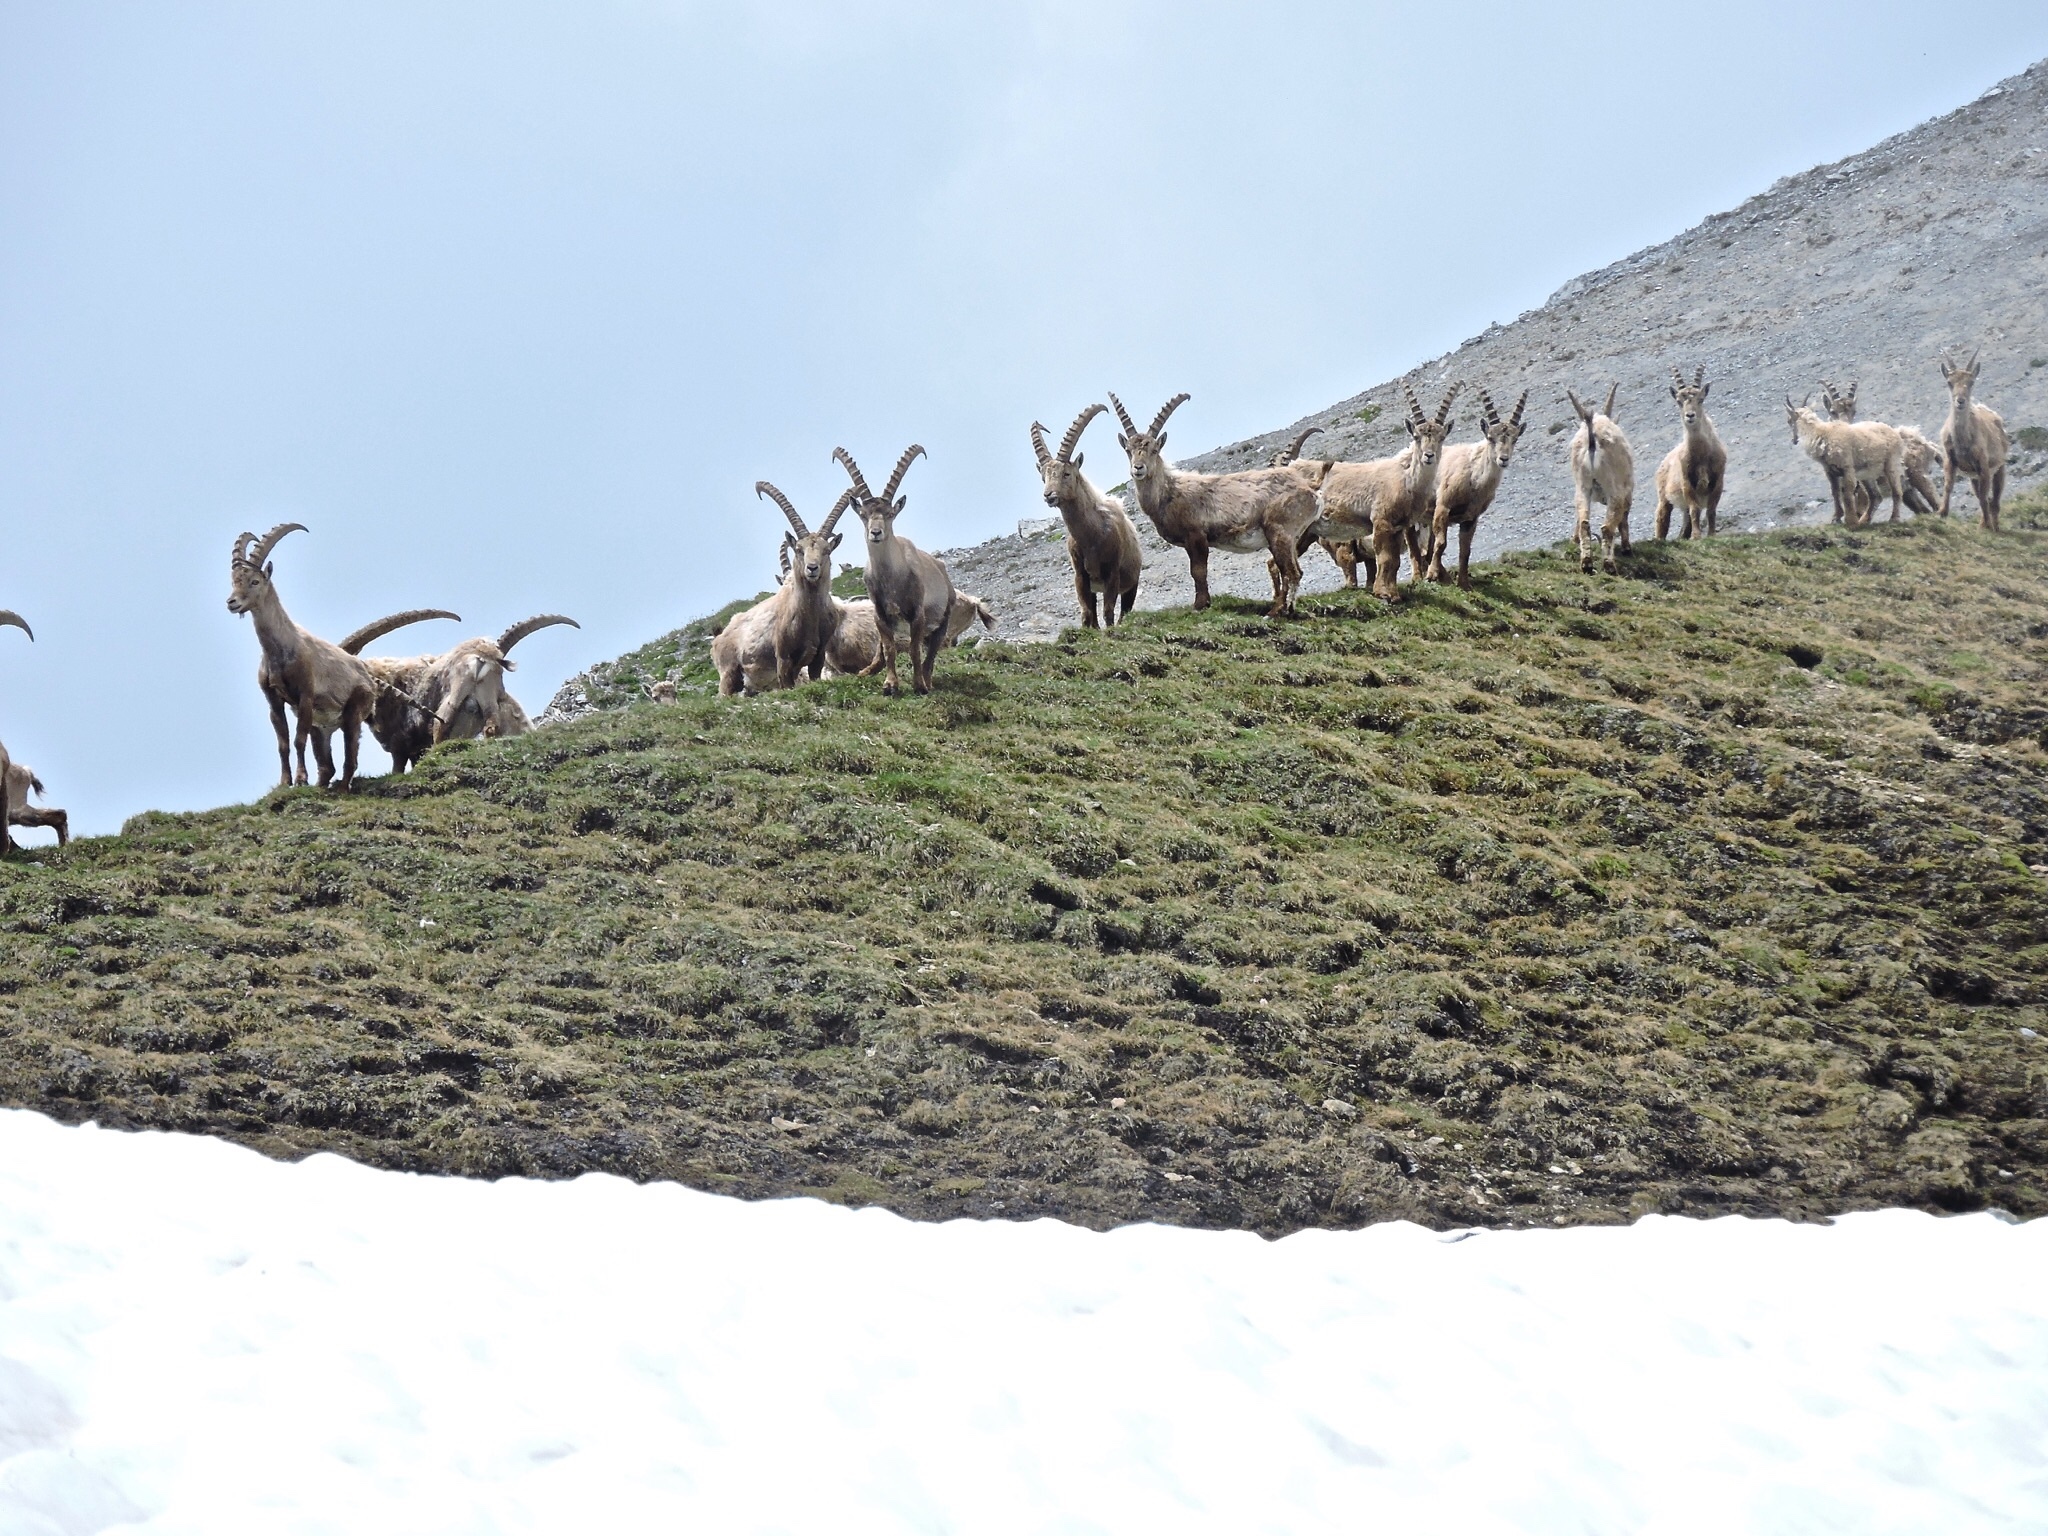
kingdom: Animalia
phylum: Chordata
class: Mammalia
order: Artiodactyla
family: Bovidae
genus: Capra
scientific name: Capra ibex
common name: Alpine ibex
